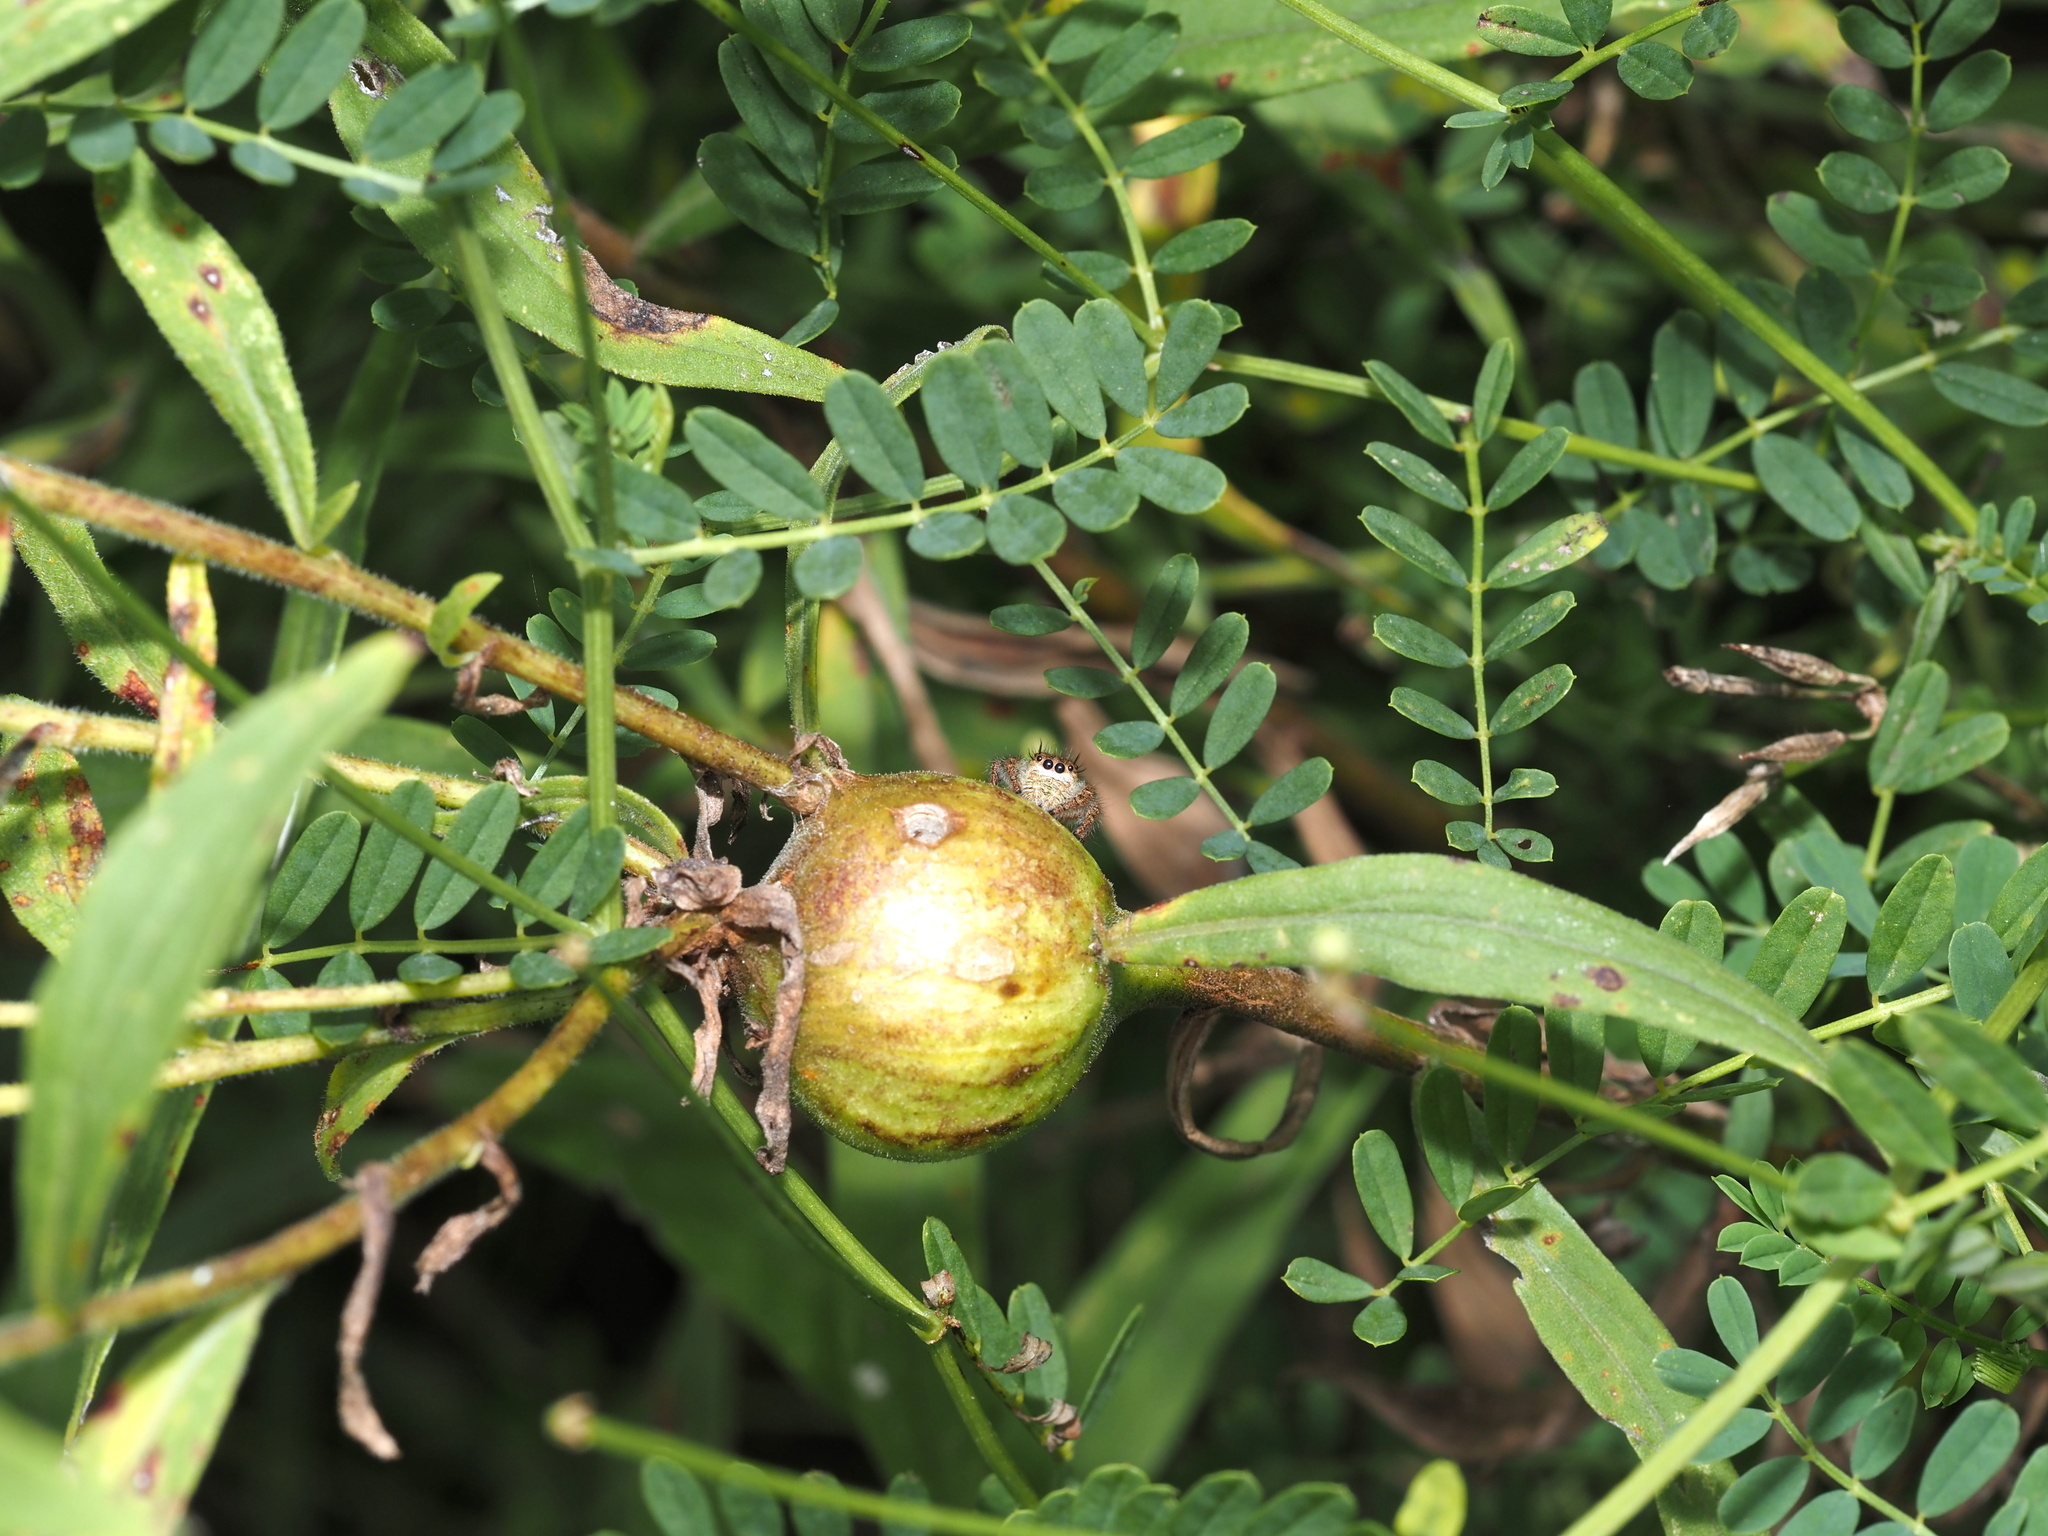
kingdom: Animalia
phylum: Arthropoda
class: Insecta
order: Diptera
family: Tephritidae
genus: Eurosta
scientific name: Eurosta solidaginis
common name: Goldenrod gall fly
